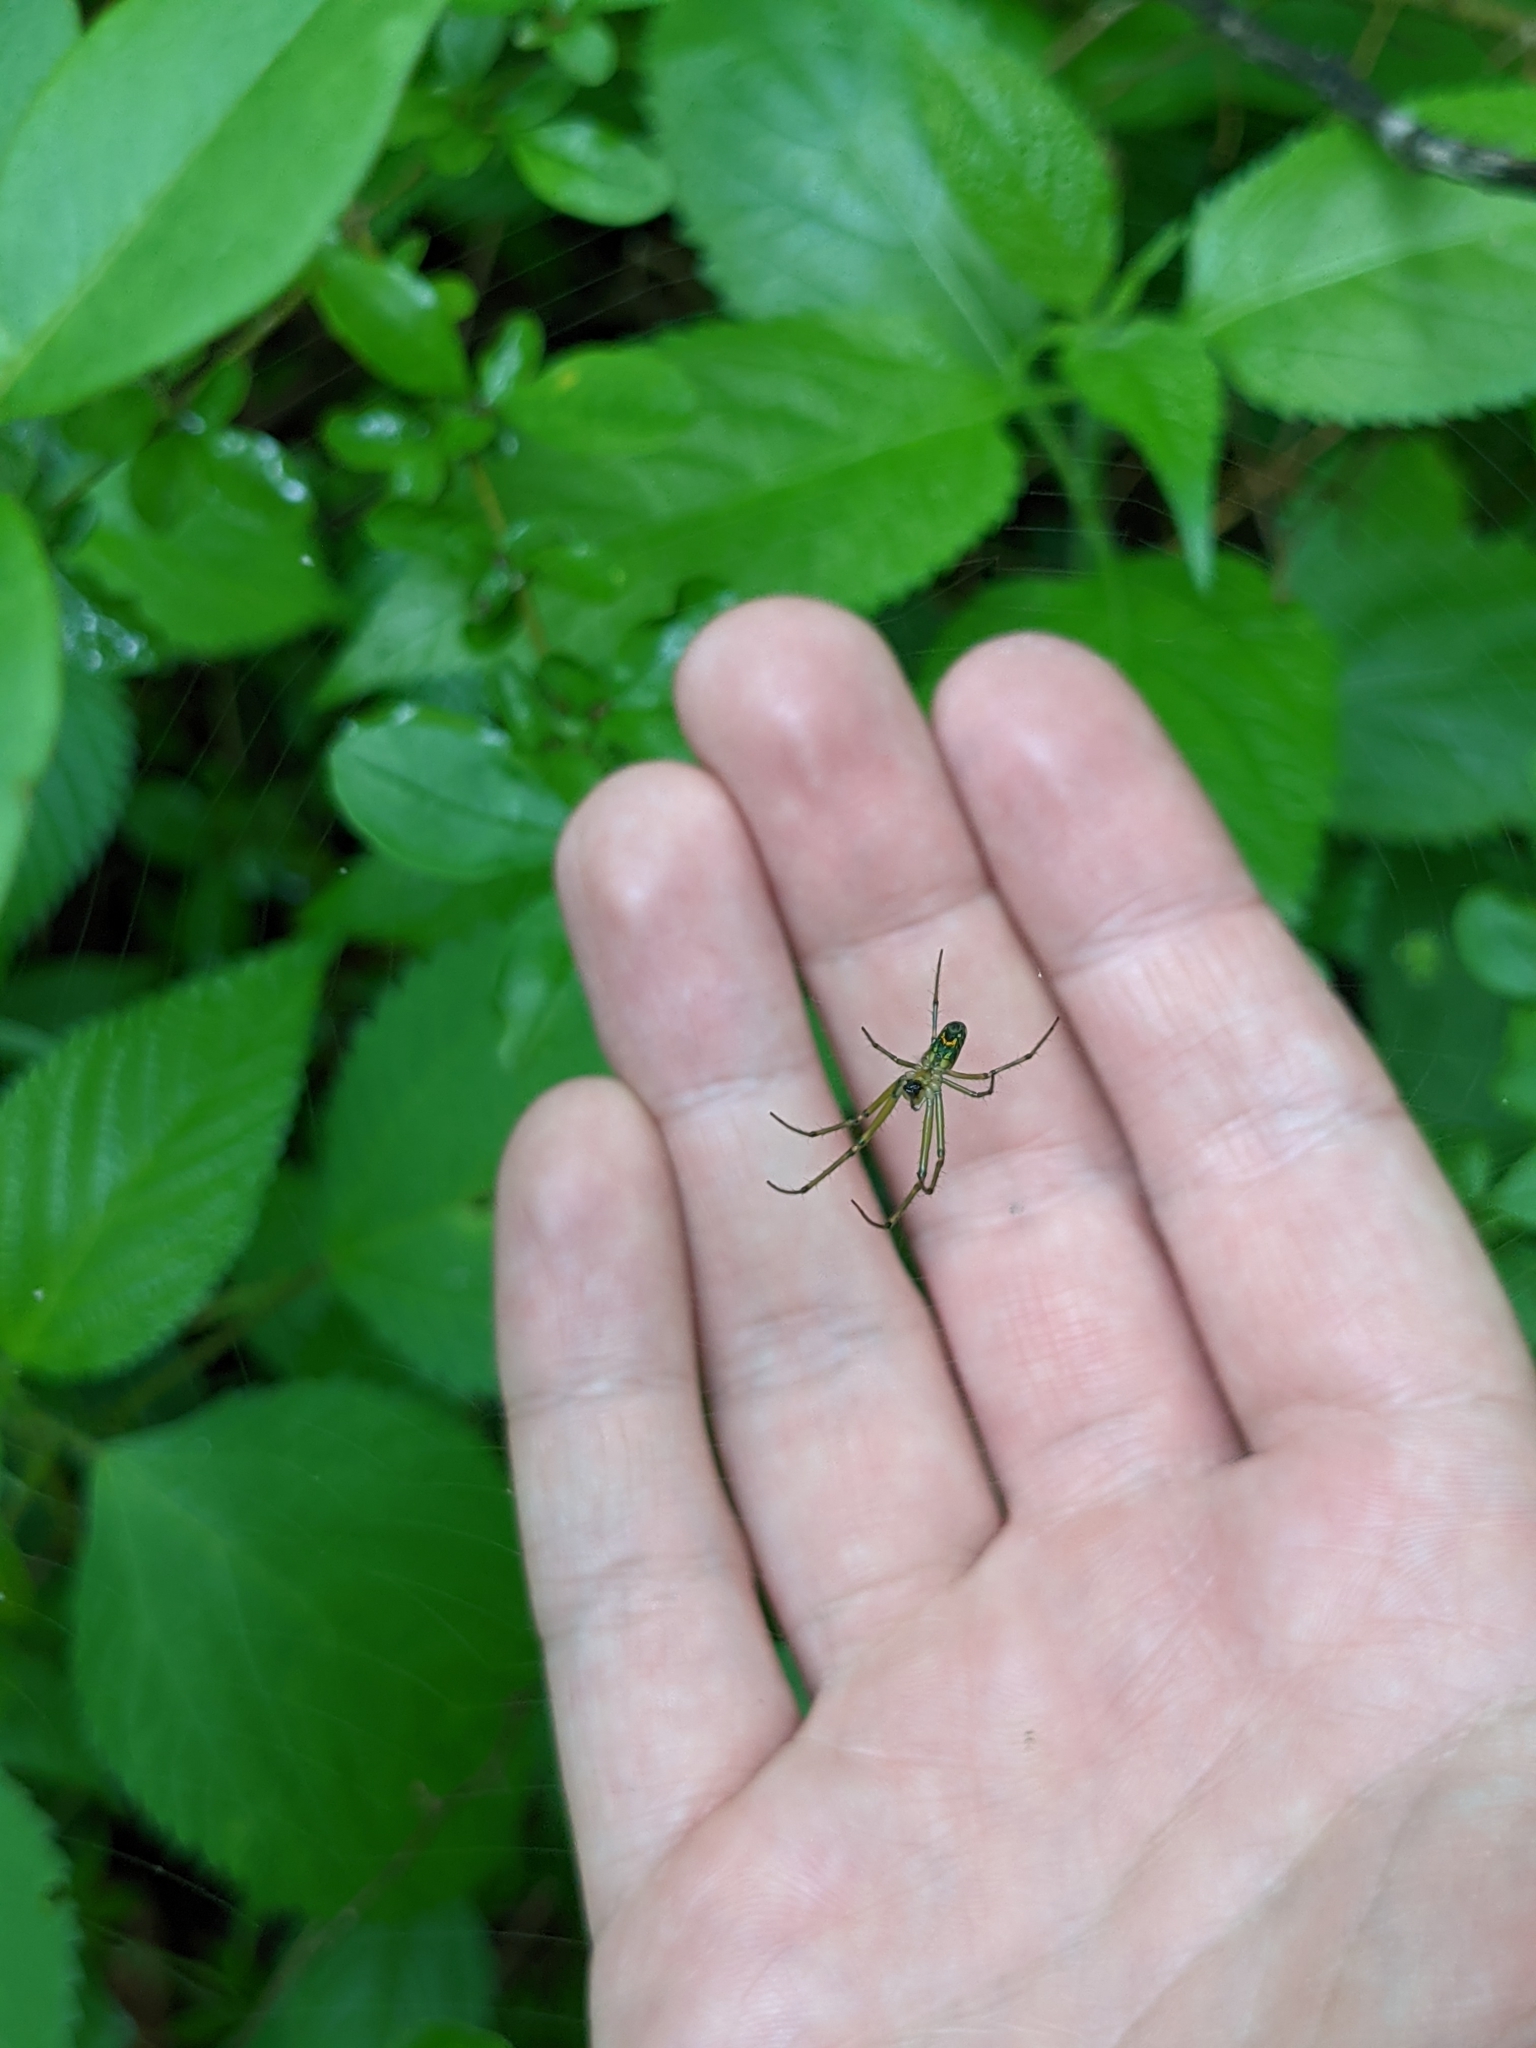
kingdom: Animalia
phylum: Arthropoda
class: Arachnida
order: Araneae
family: Tetragnathidae
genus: Leucauge
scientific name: Leucauge venusta
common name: Longjawed orb weavers
